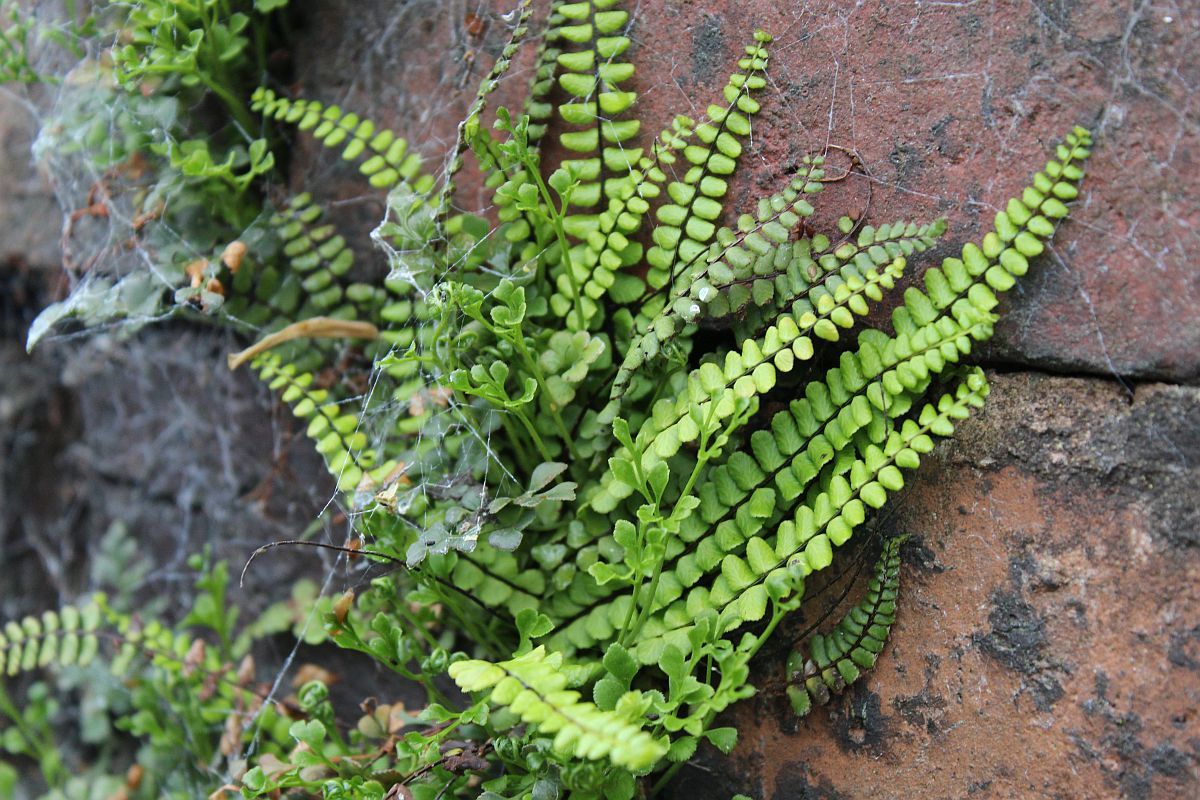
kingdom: Plantae
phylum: Tracheophyta
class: Polypodiopsida
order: Polypodiales
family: Aspleniaceae
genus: Asplenium
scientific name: Asplenium trichomanes
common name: Maidenhair spleenwort
